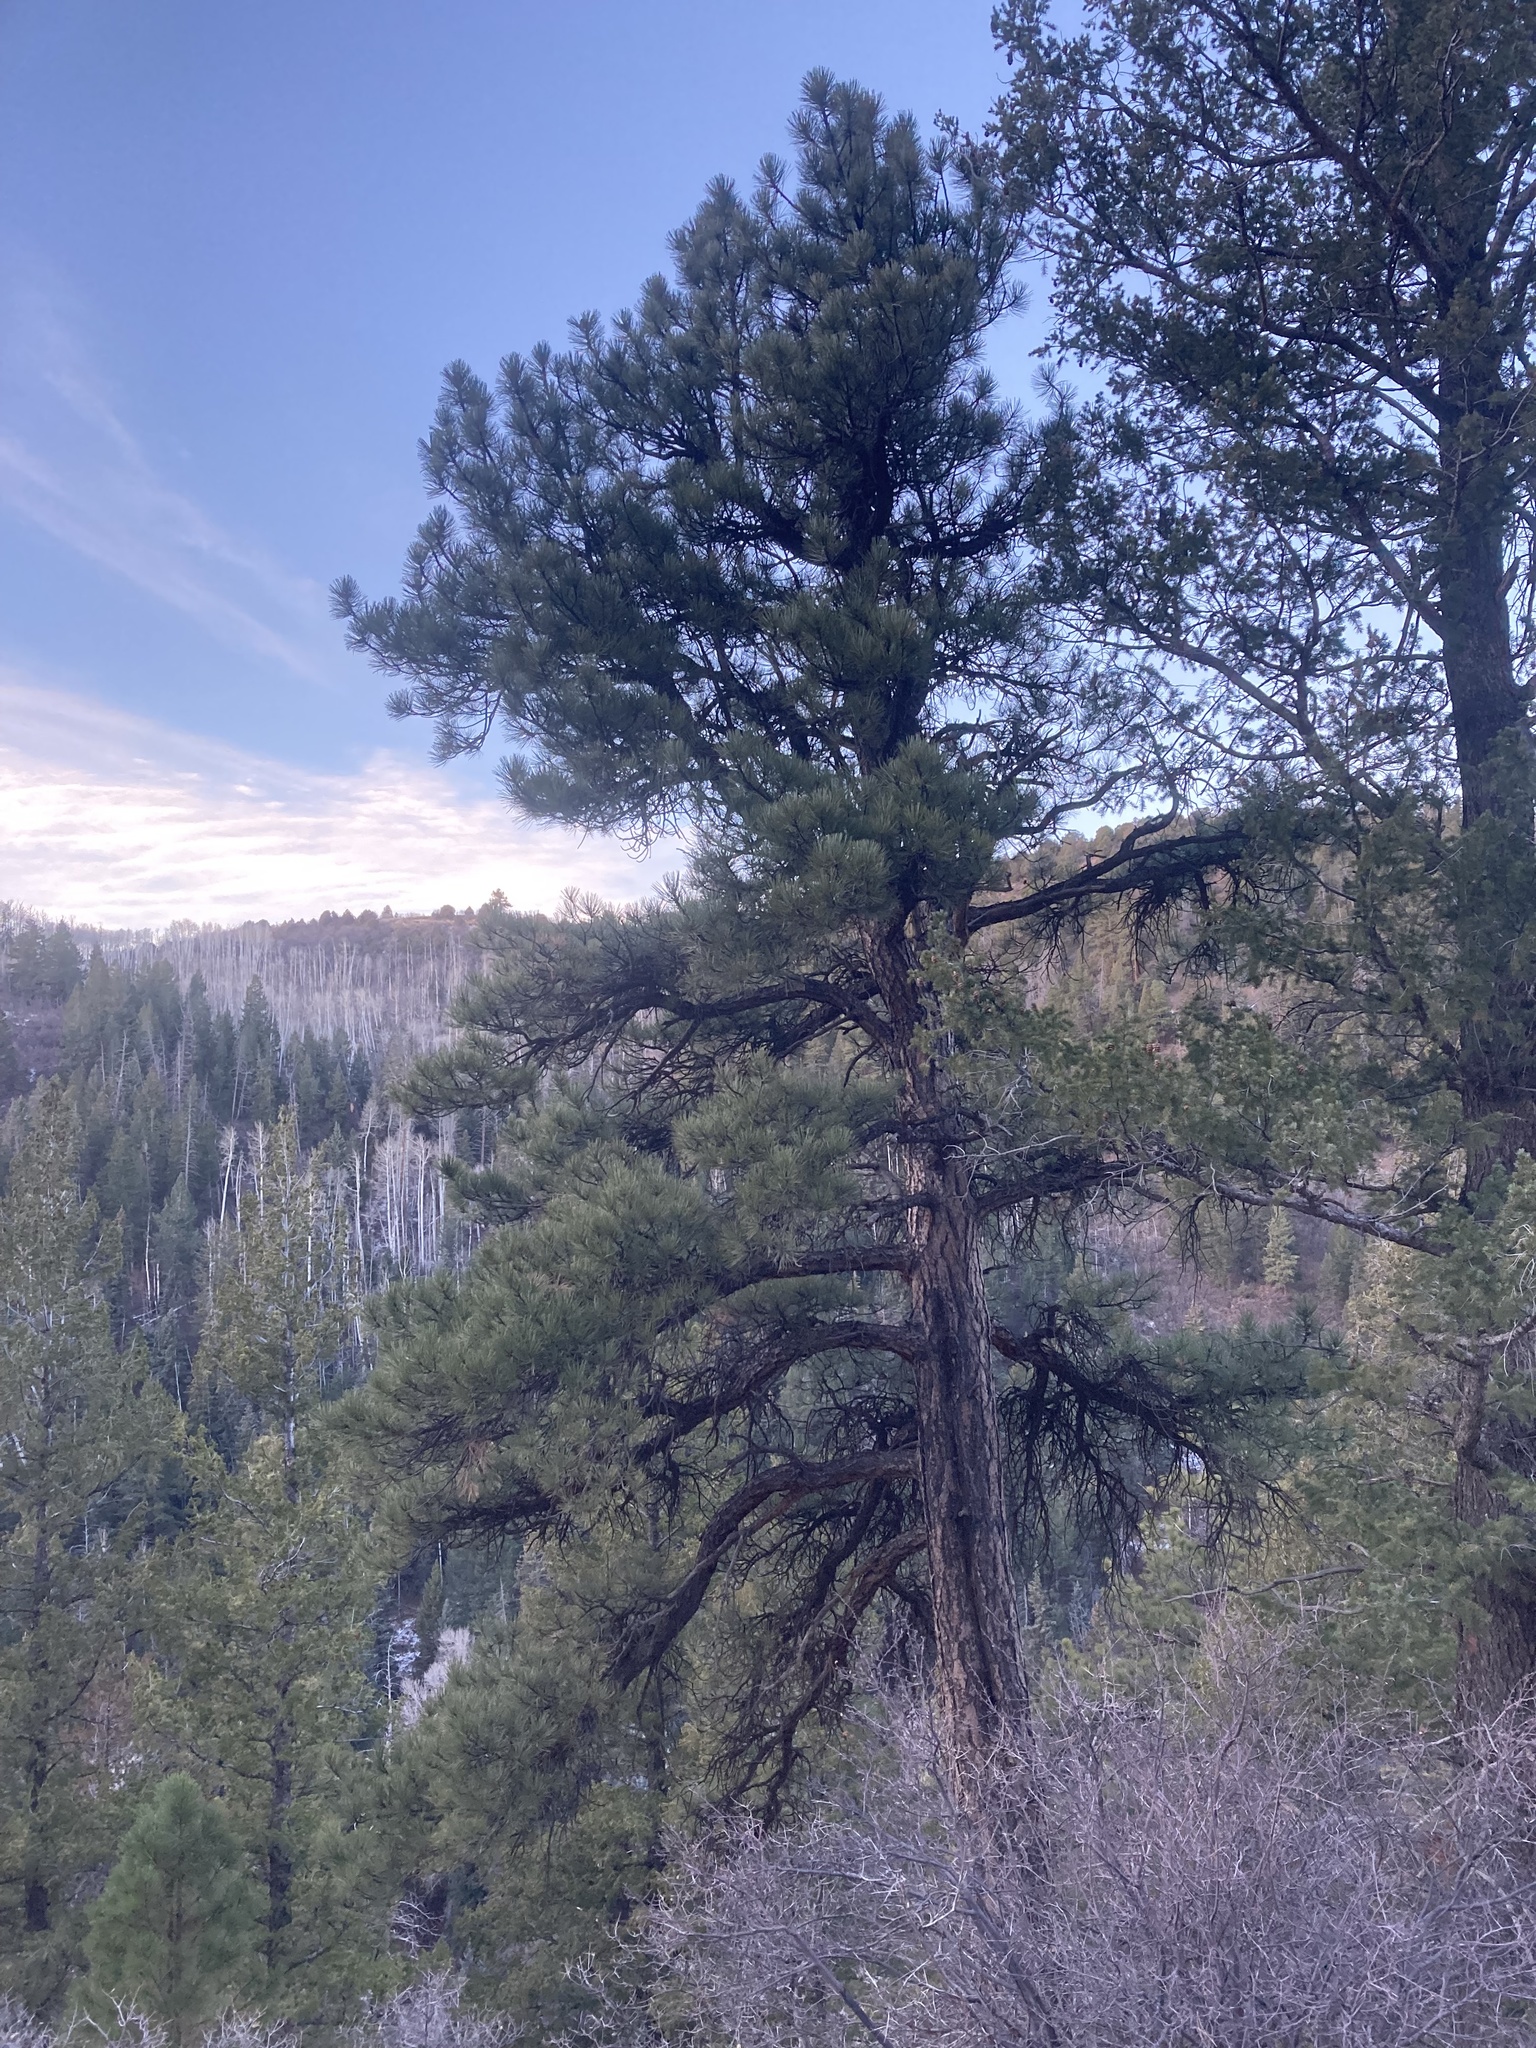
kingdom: Plantae
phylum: Tracheophyta
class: Pinopsida
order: Pinales
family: Pinaceae
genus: Pinus
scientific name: Pinus ponderosa
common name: Western yellow-pine
